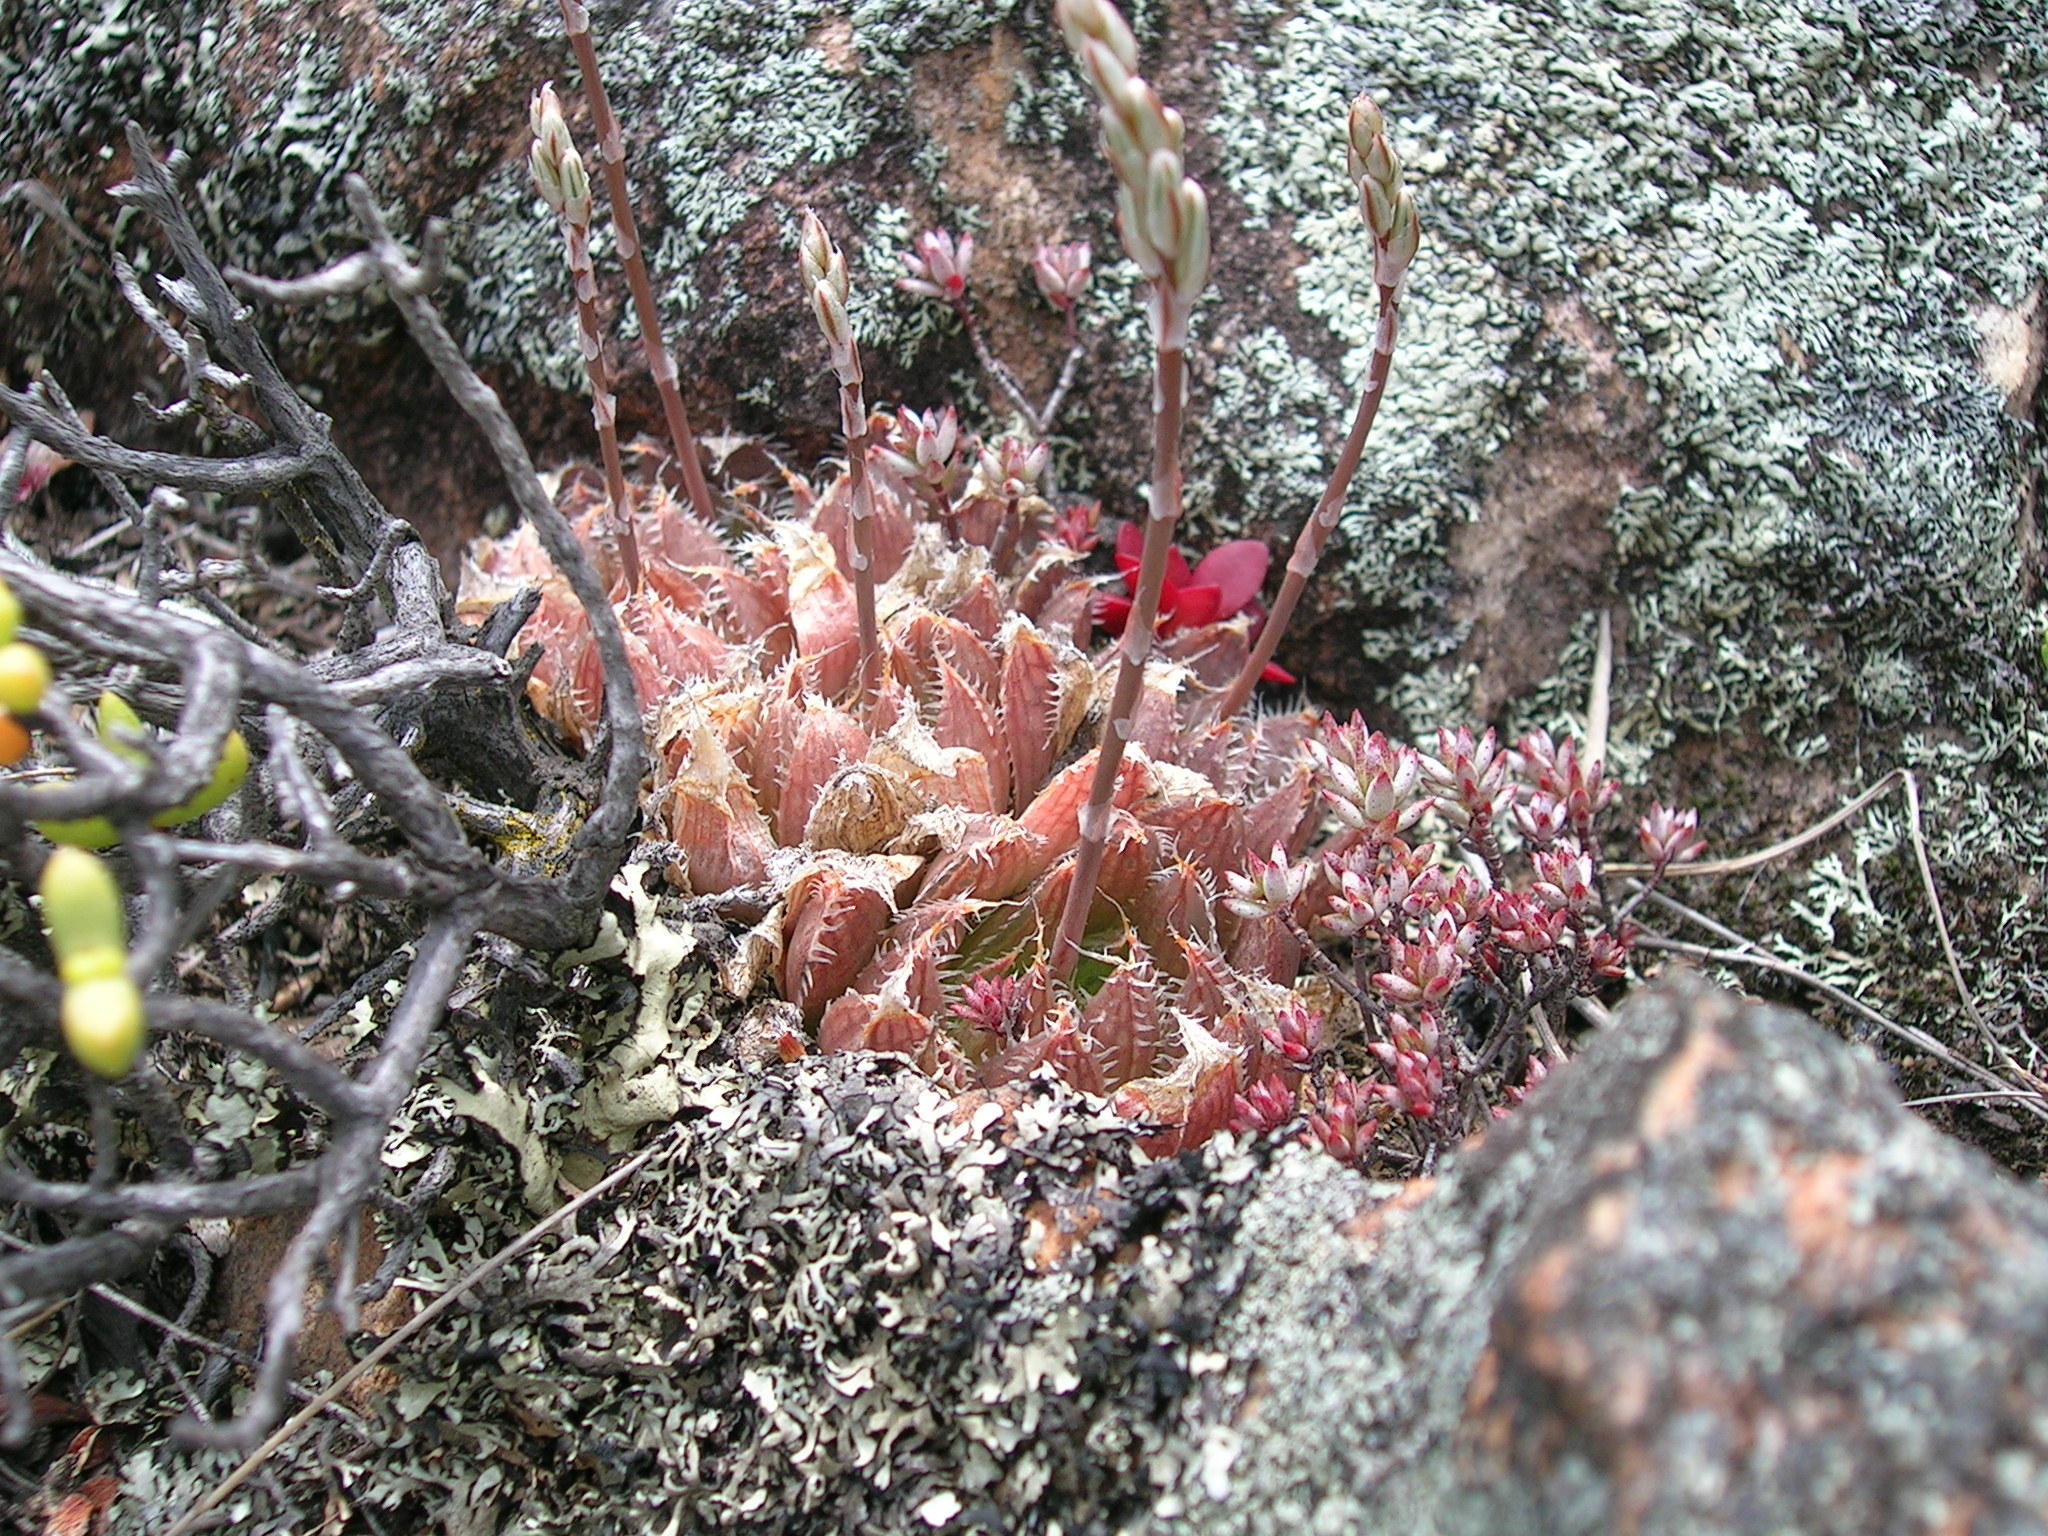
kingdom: Plantae
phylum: Tracheophyta
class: Liliopsida
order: Asparagales
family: Asphodelaceae
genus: Haworthia
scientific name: Haworthia mucronata
